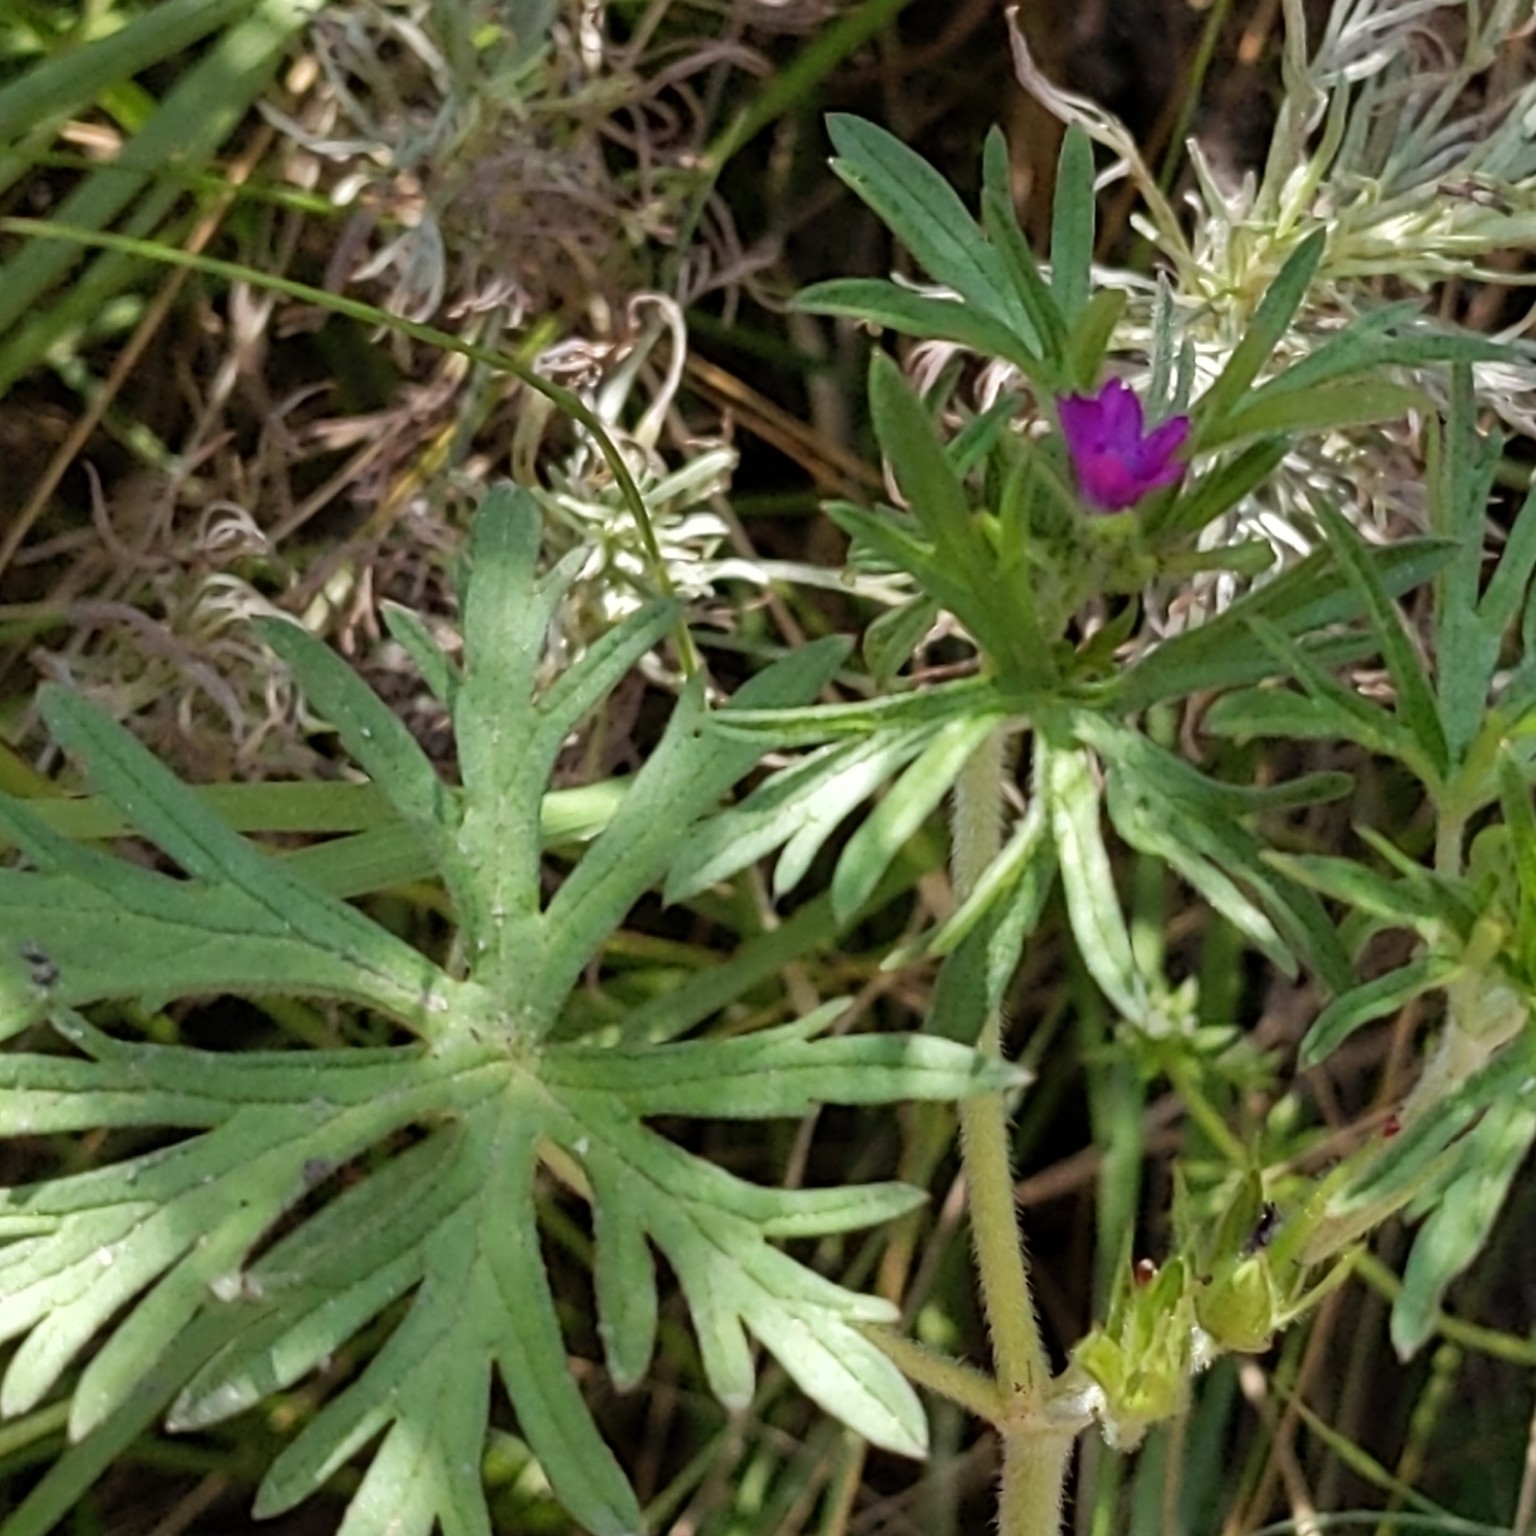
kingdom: Plantae
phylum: Tracheophyta
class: Magnoliopsida
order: Geraniales
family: Geraniaceae
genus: Geranium
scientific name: Geranium dissectum
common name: Cut-leaved crane's-bill
